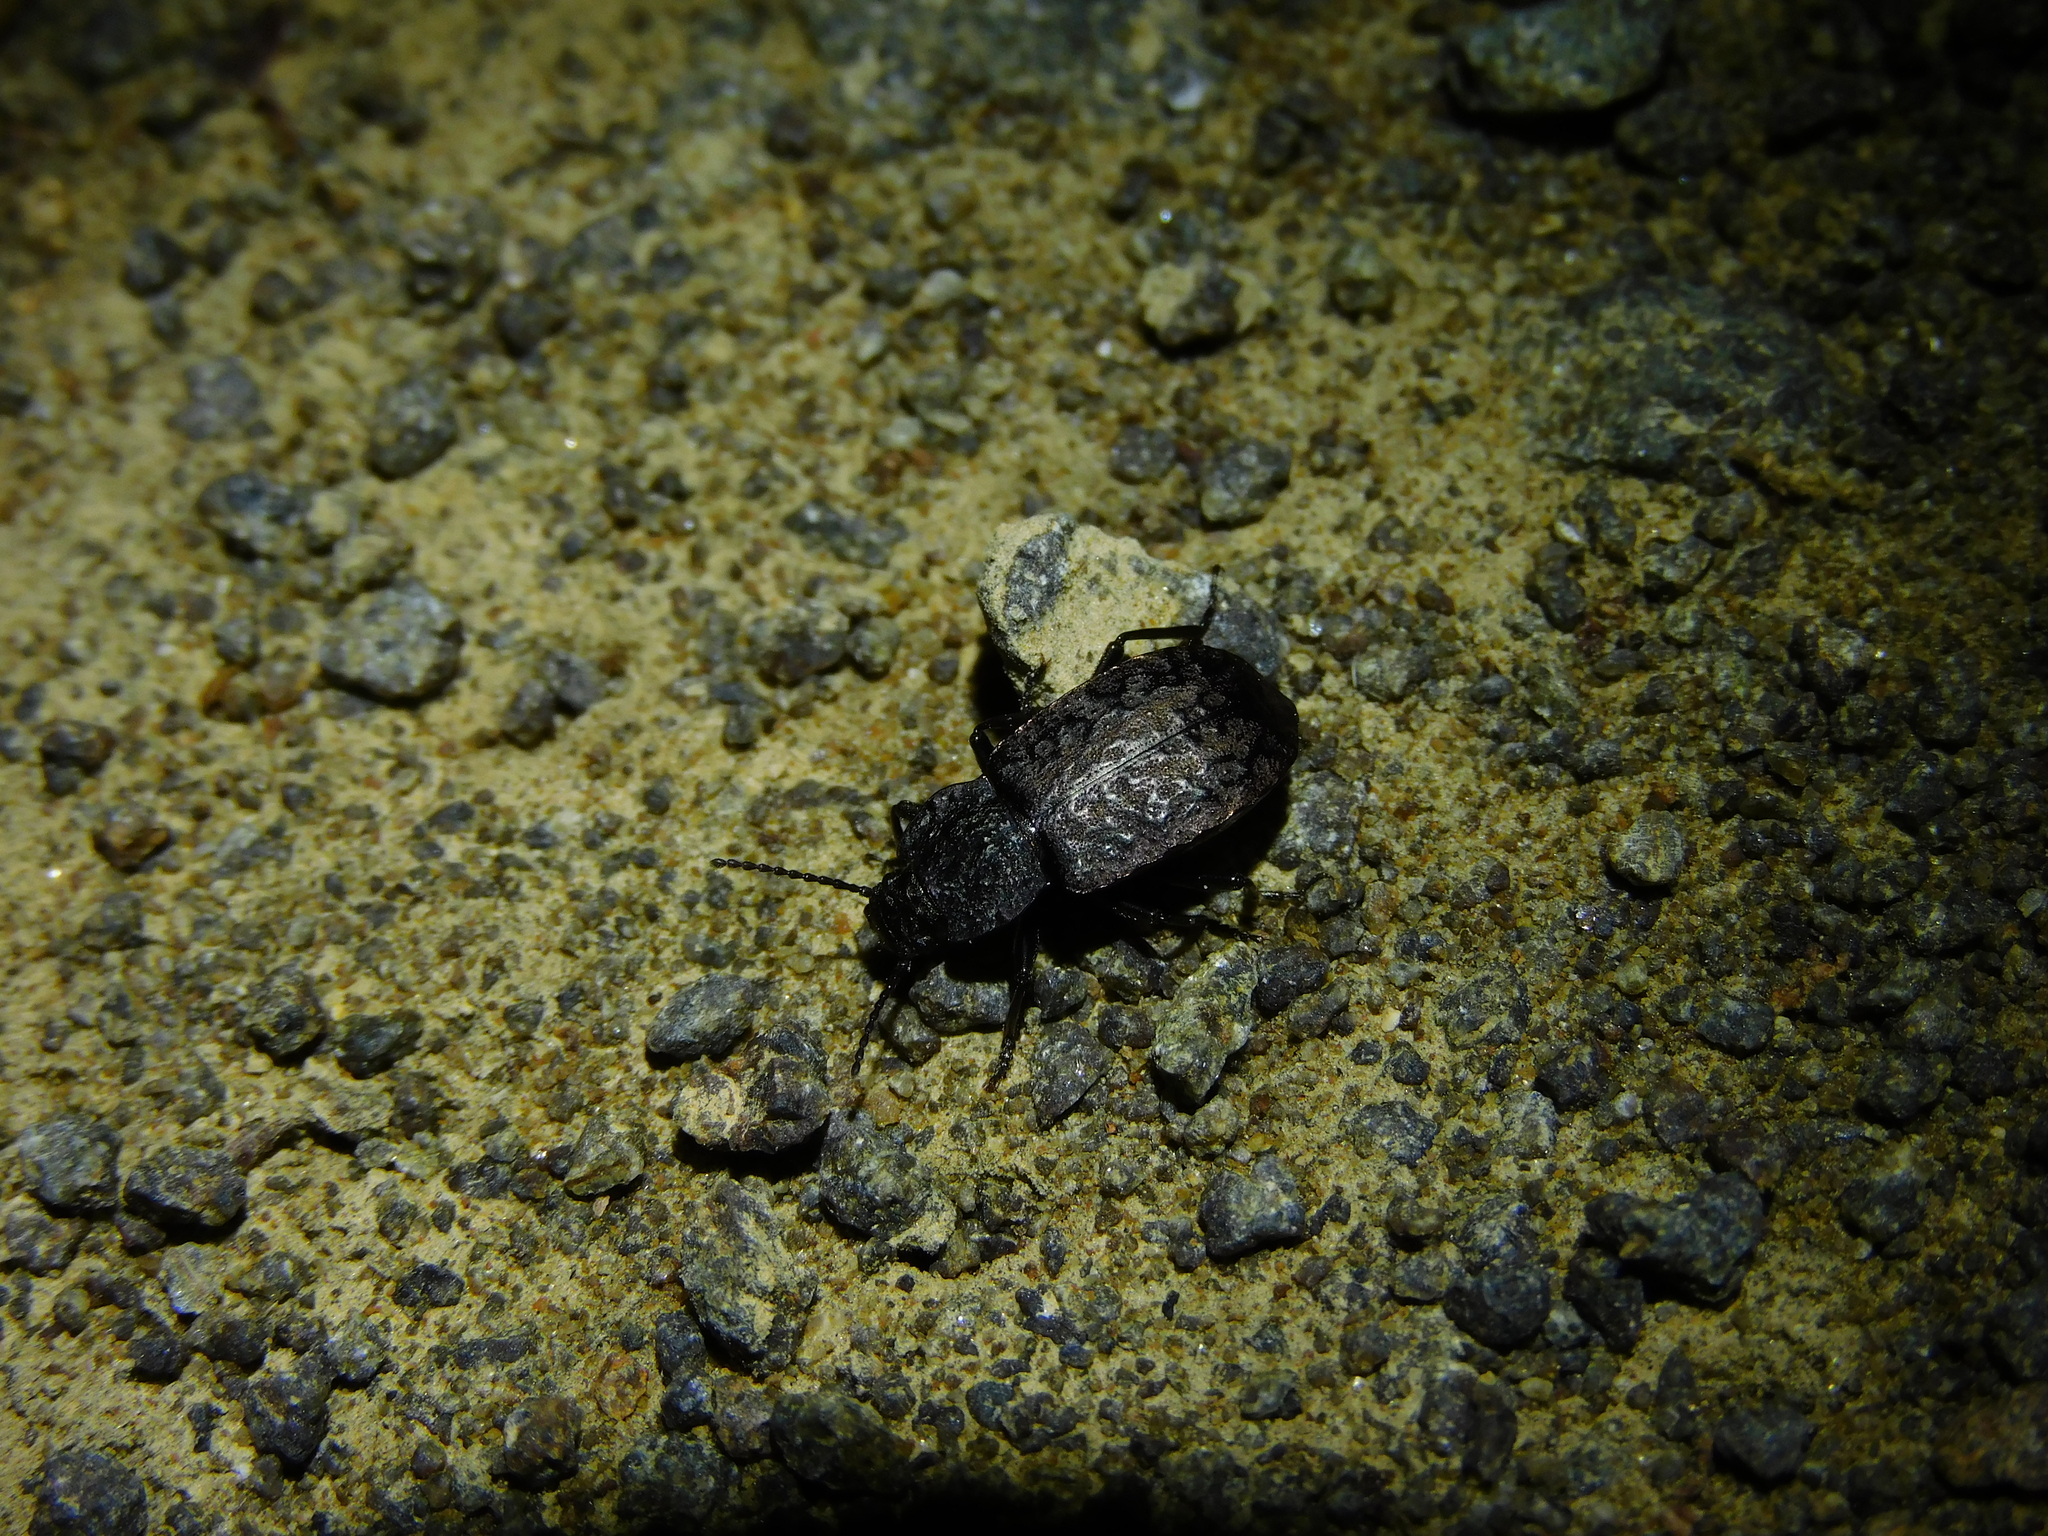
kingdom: Animalia
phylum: Arthropoda
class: Insecta
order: Coleoptera
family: Tenebrionidae
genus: Coripera
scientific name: Coripera deplanata
